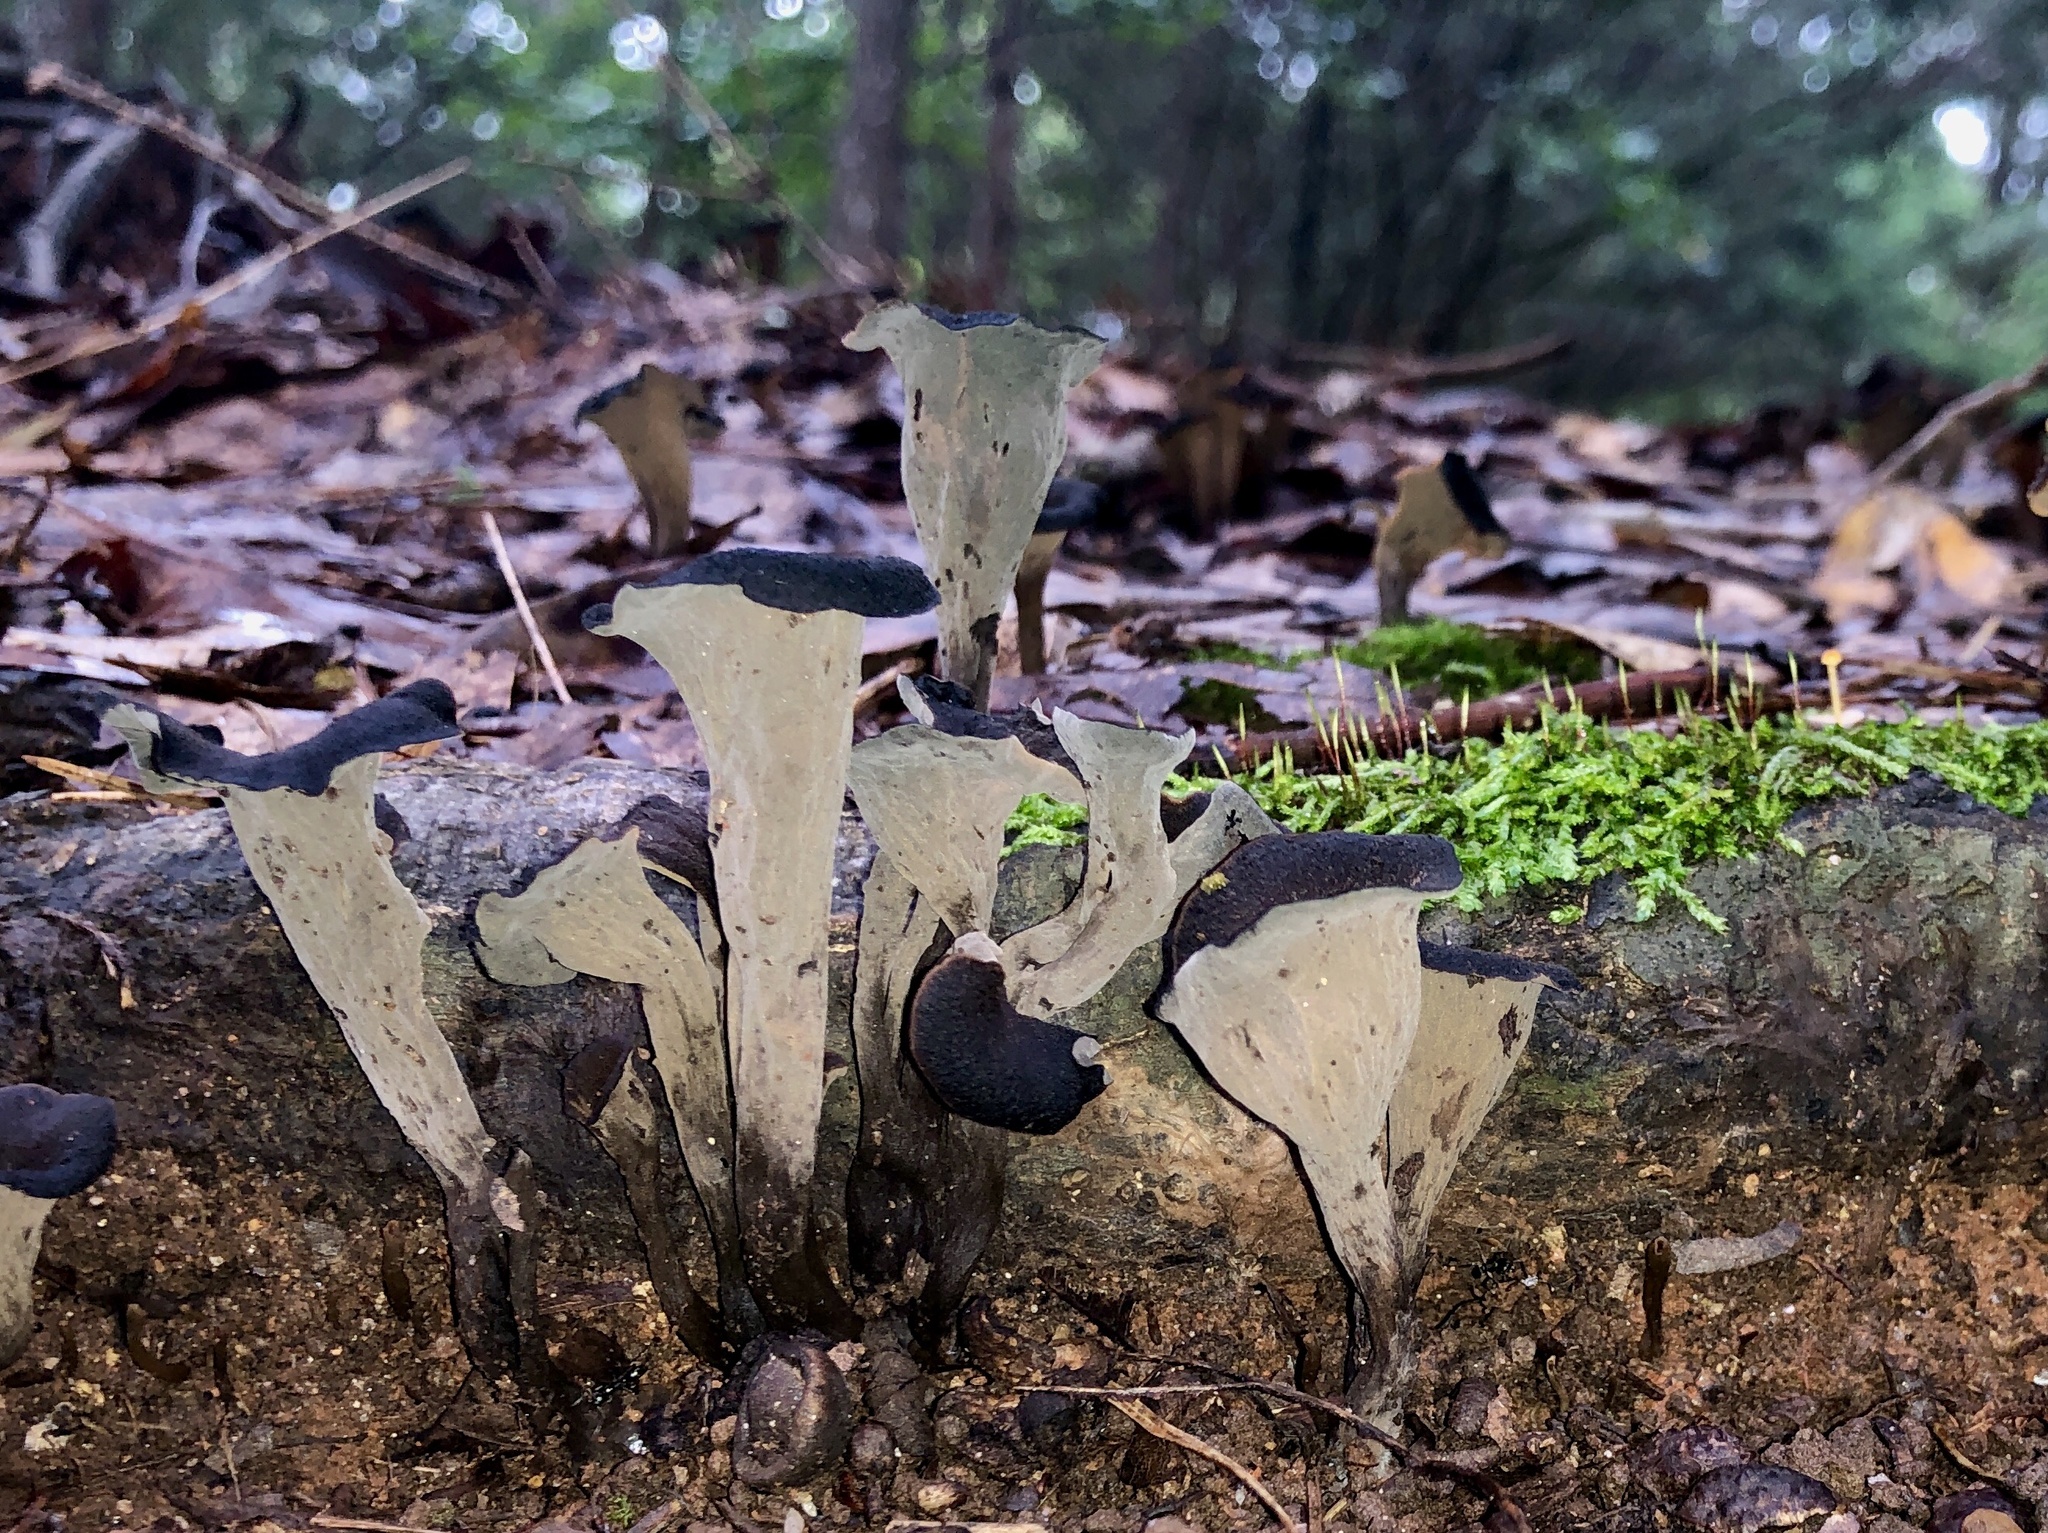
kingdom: Fungi
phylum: Basidiomycota
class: Agaricomycetes
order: Cantharellales
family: Hydnaceae
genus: Craterellus
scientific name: Craterellus cornucopioides
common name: Horn of plenty
